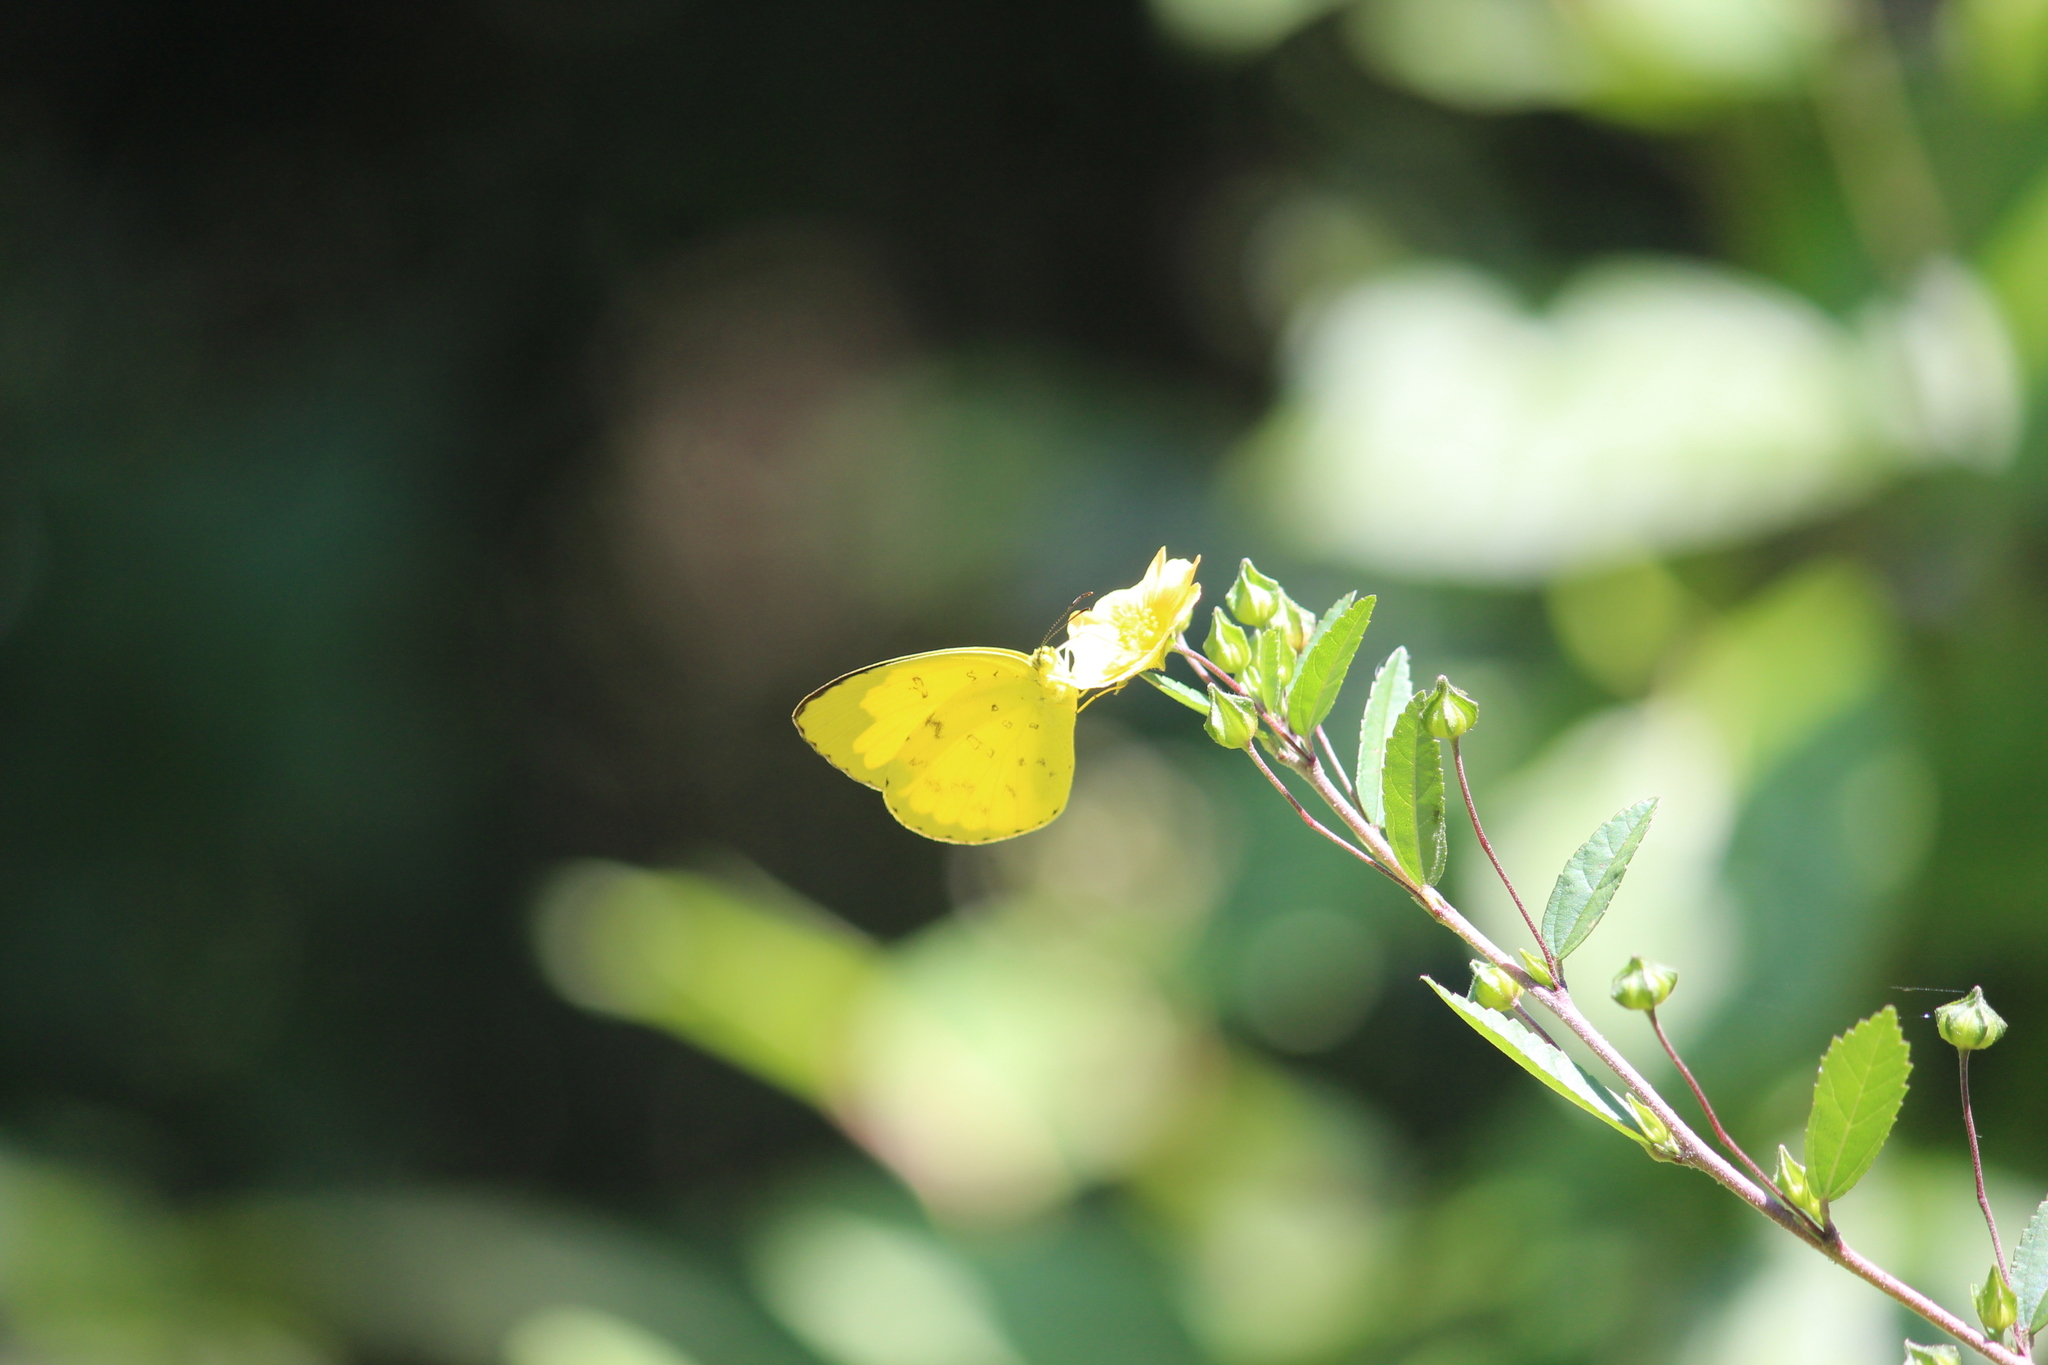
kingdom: Animalia
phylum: Arthropoda
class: Insecta
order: Lepidoptera
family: Pieridae
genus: Eurema
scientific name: Eurema hecabe
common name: Pale grass yellow
